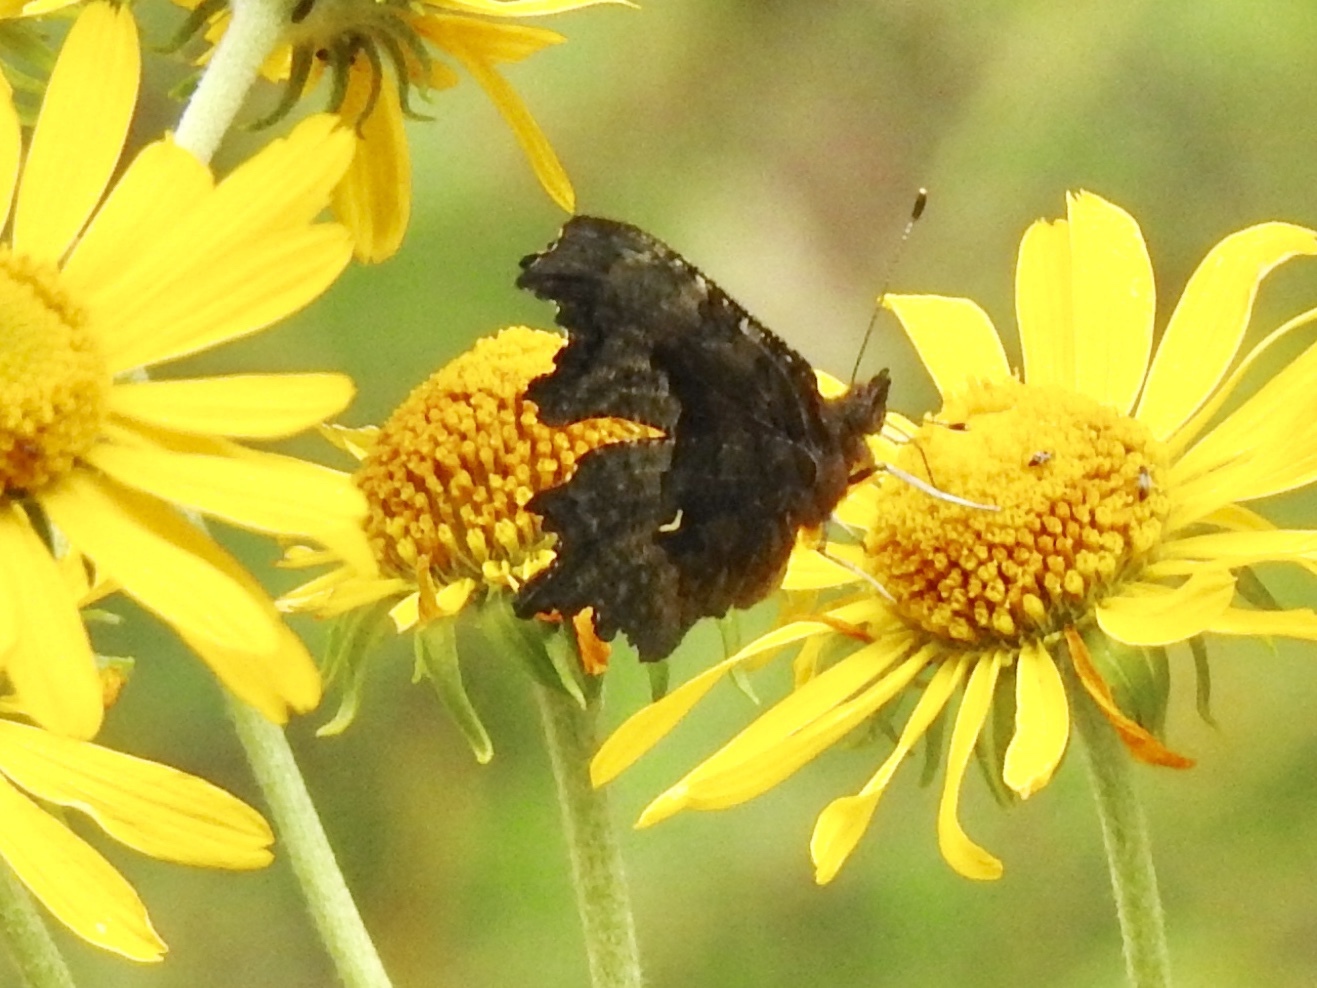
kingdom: Animalia
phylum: Arthropoda
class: Insecta
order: Lepidoptera
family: Nymphalidae
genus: Polygonia
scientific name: Polygonia gracilis
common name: Hoary comma
